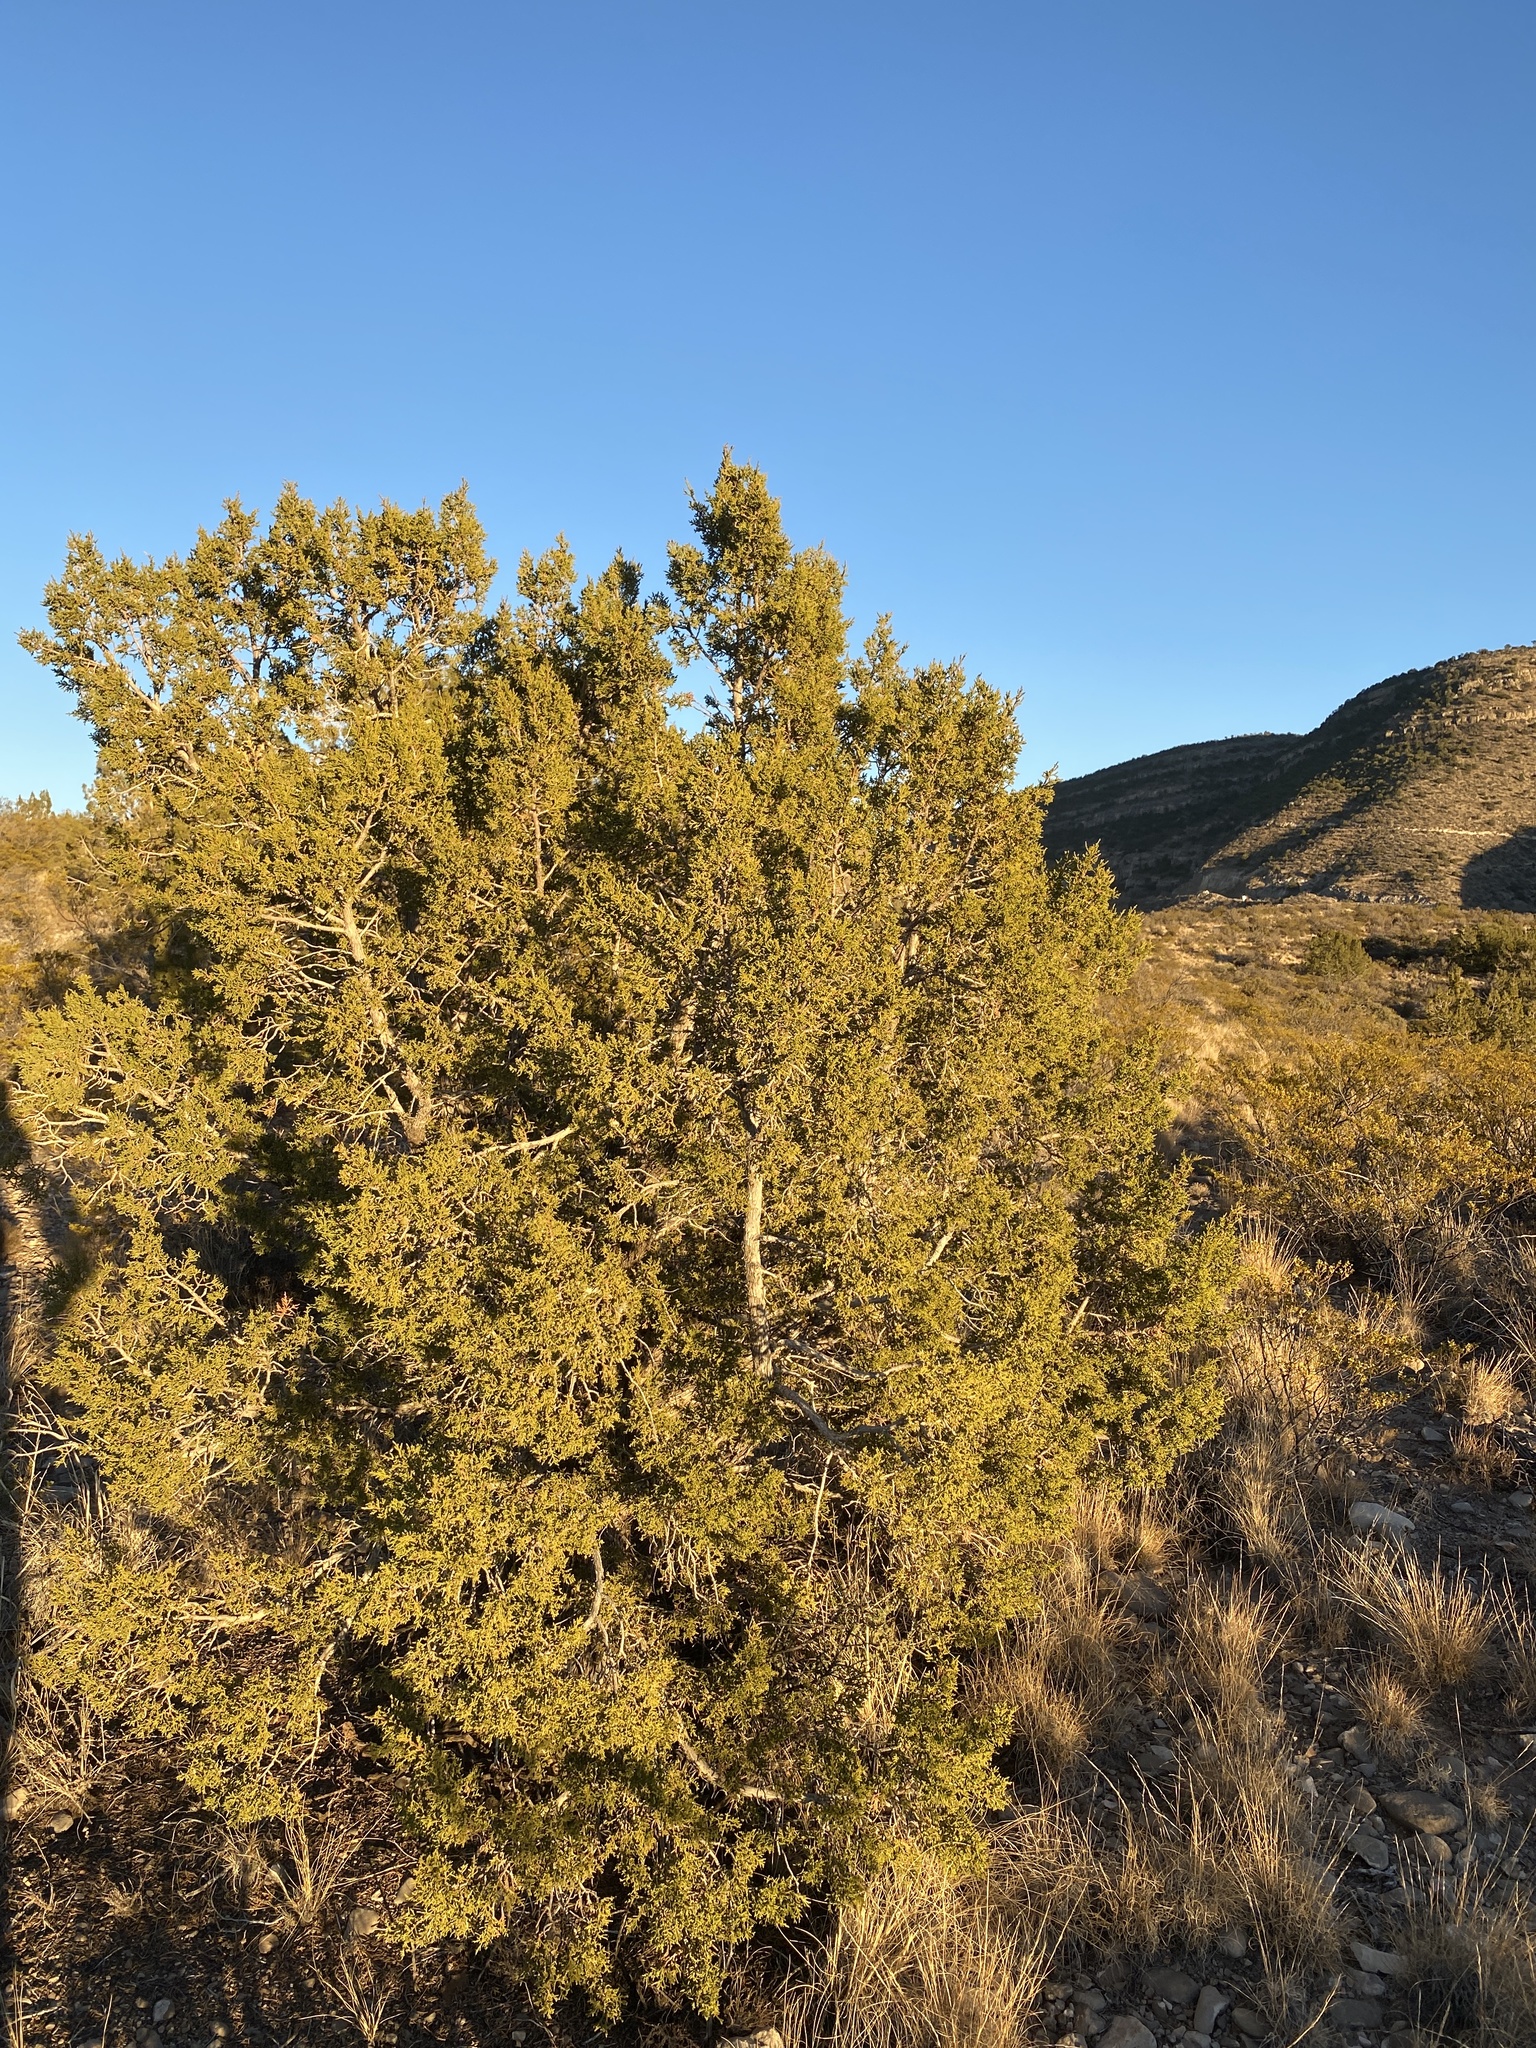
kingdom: Plantae
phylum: Tracheophyta
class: Pinopsida
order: Pinales
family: Cupressaceae
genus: Juniperus
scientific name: Juniperus monosperma
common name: One-seed juniper
